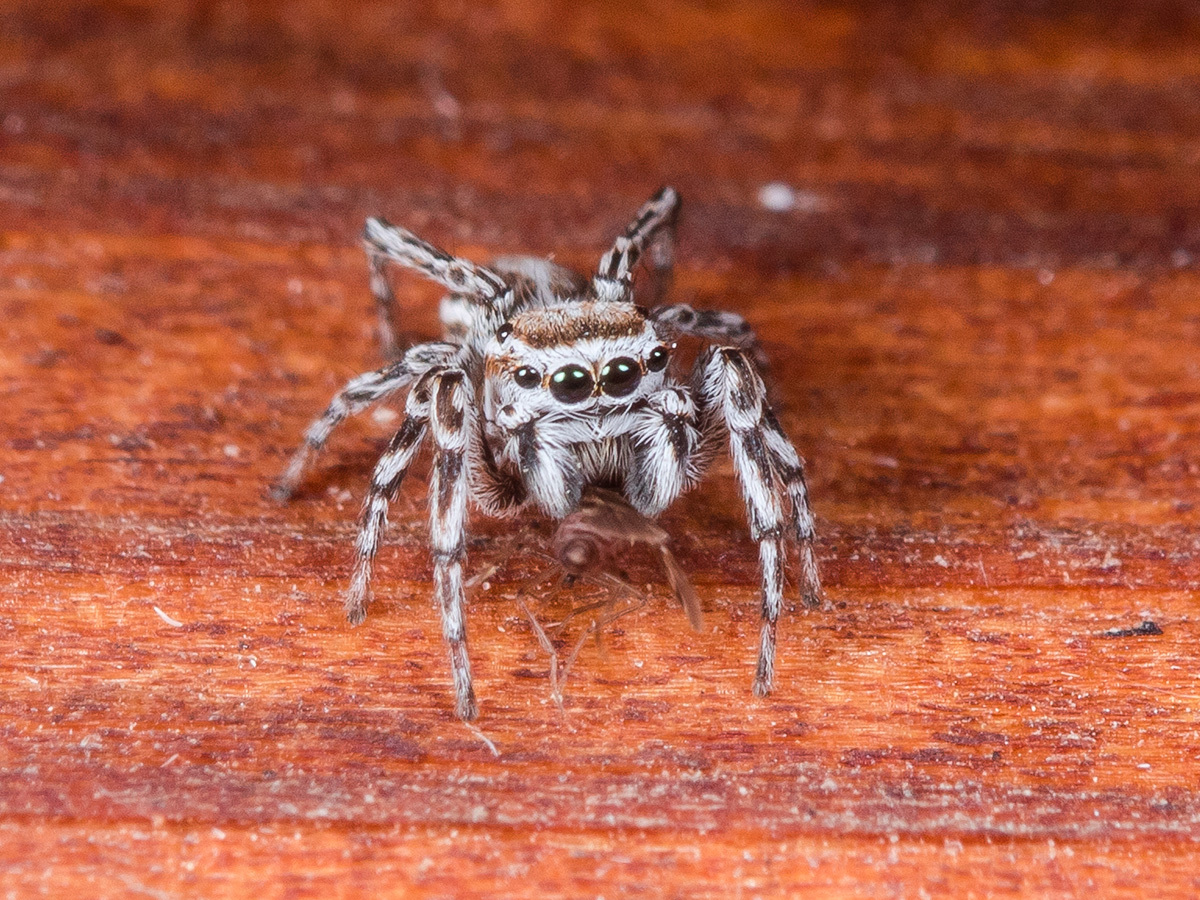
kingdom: Animalia
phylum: Arthropoda
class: Arachnida
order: Araneae
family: Salticidae
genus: Attulus
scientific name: Attulus nenilini
